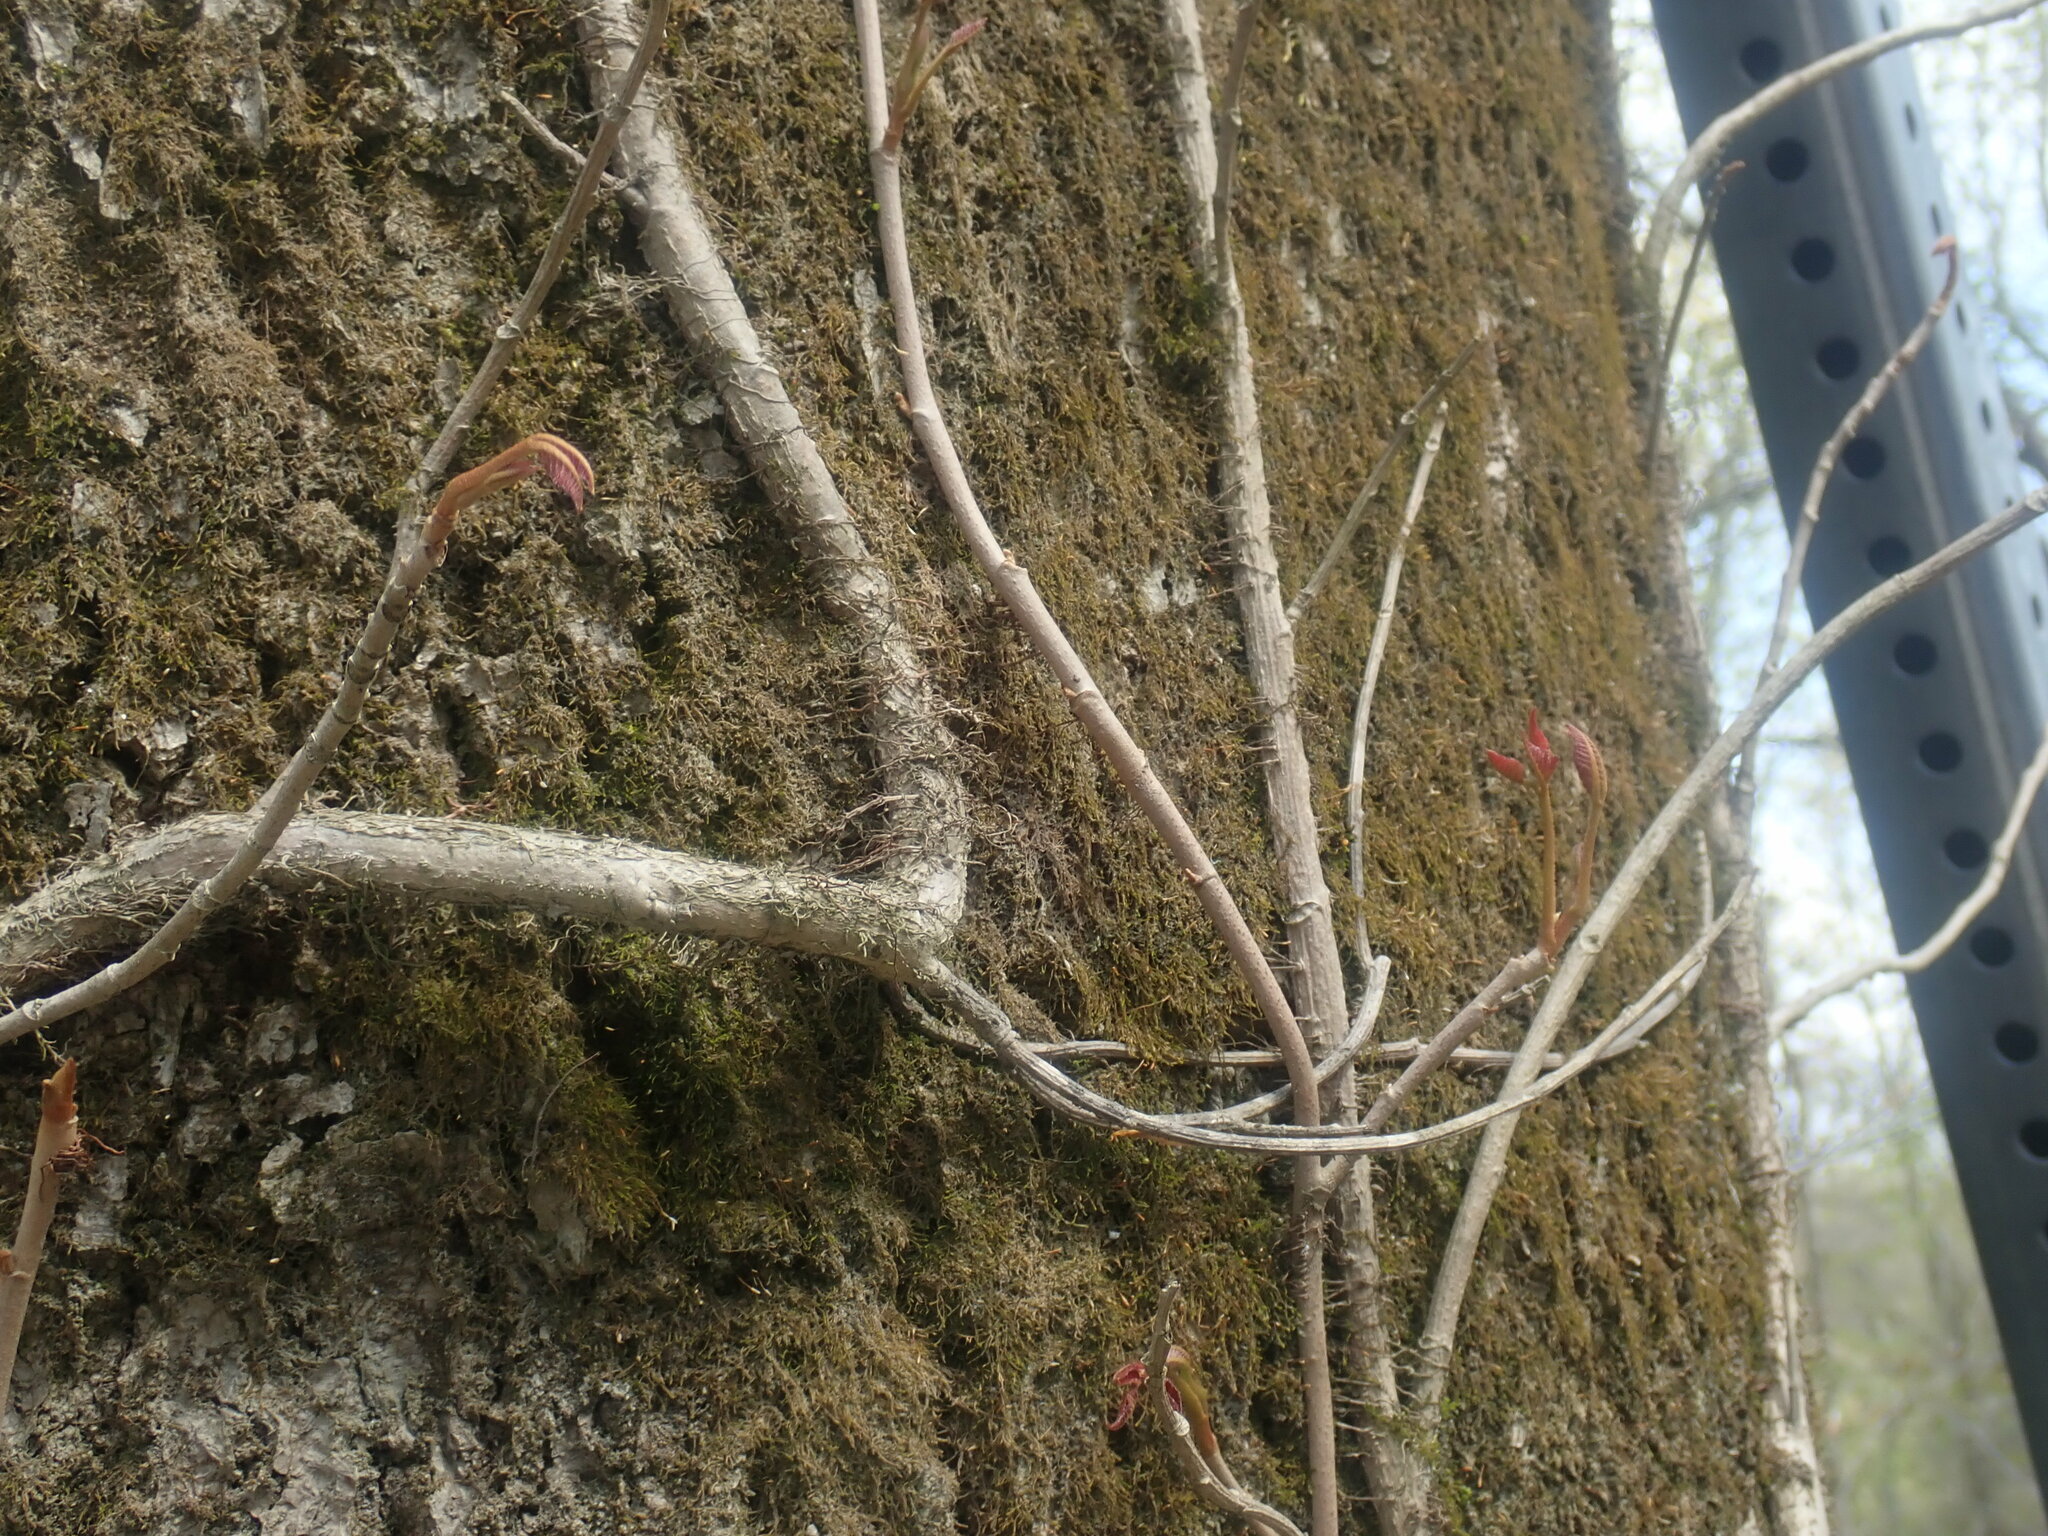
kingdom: Plantae
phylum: Tracheophyta
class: Magnoliopsida
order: Sapindales
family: Anacardiaceae
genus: Toxicodendron
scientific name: Toxicodendron radicans
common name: Poison ivy
